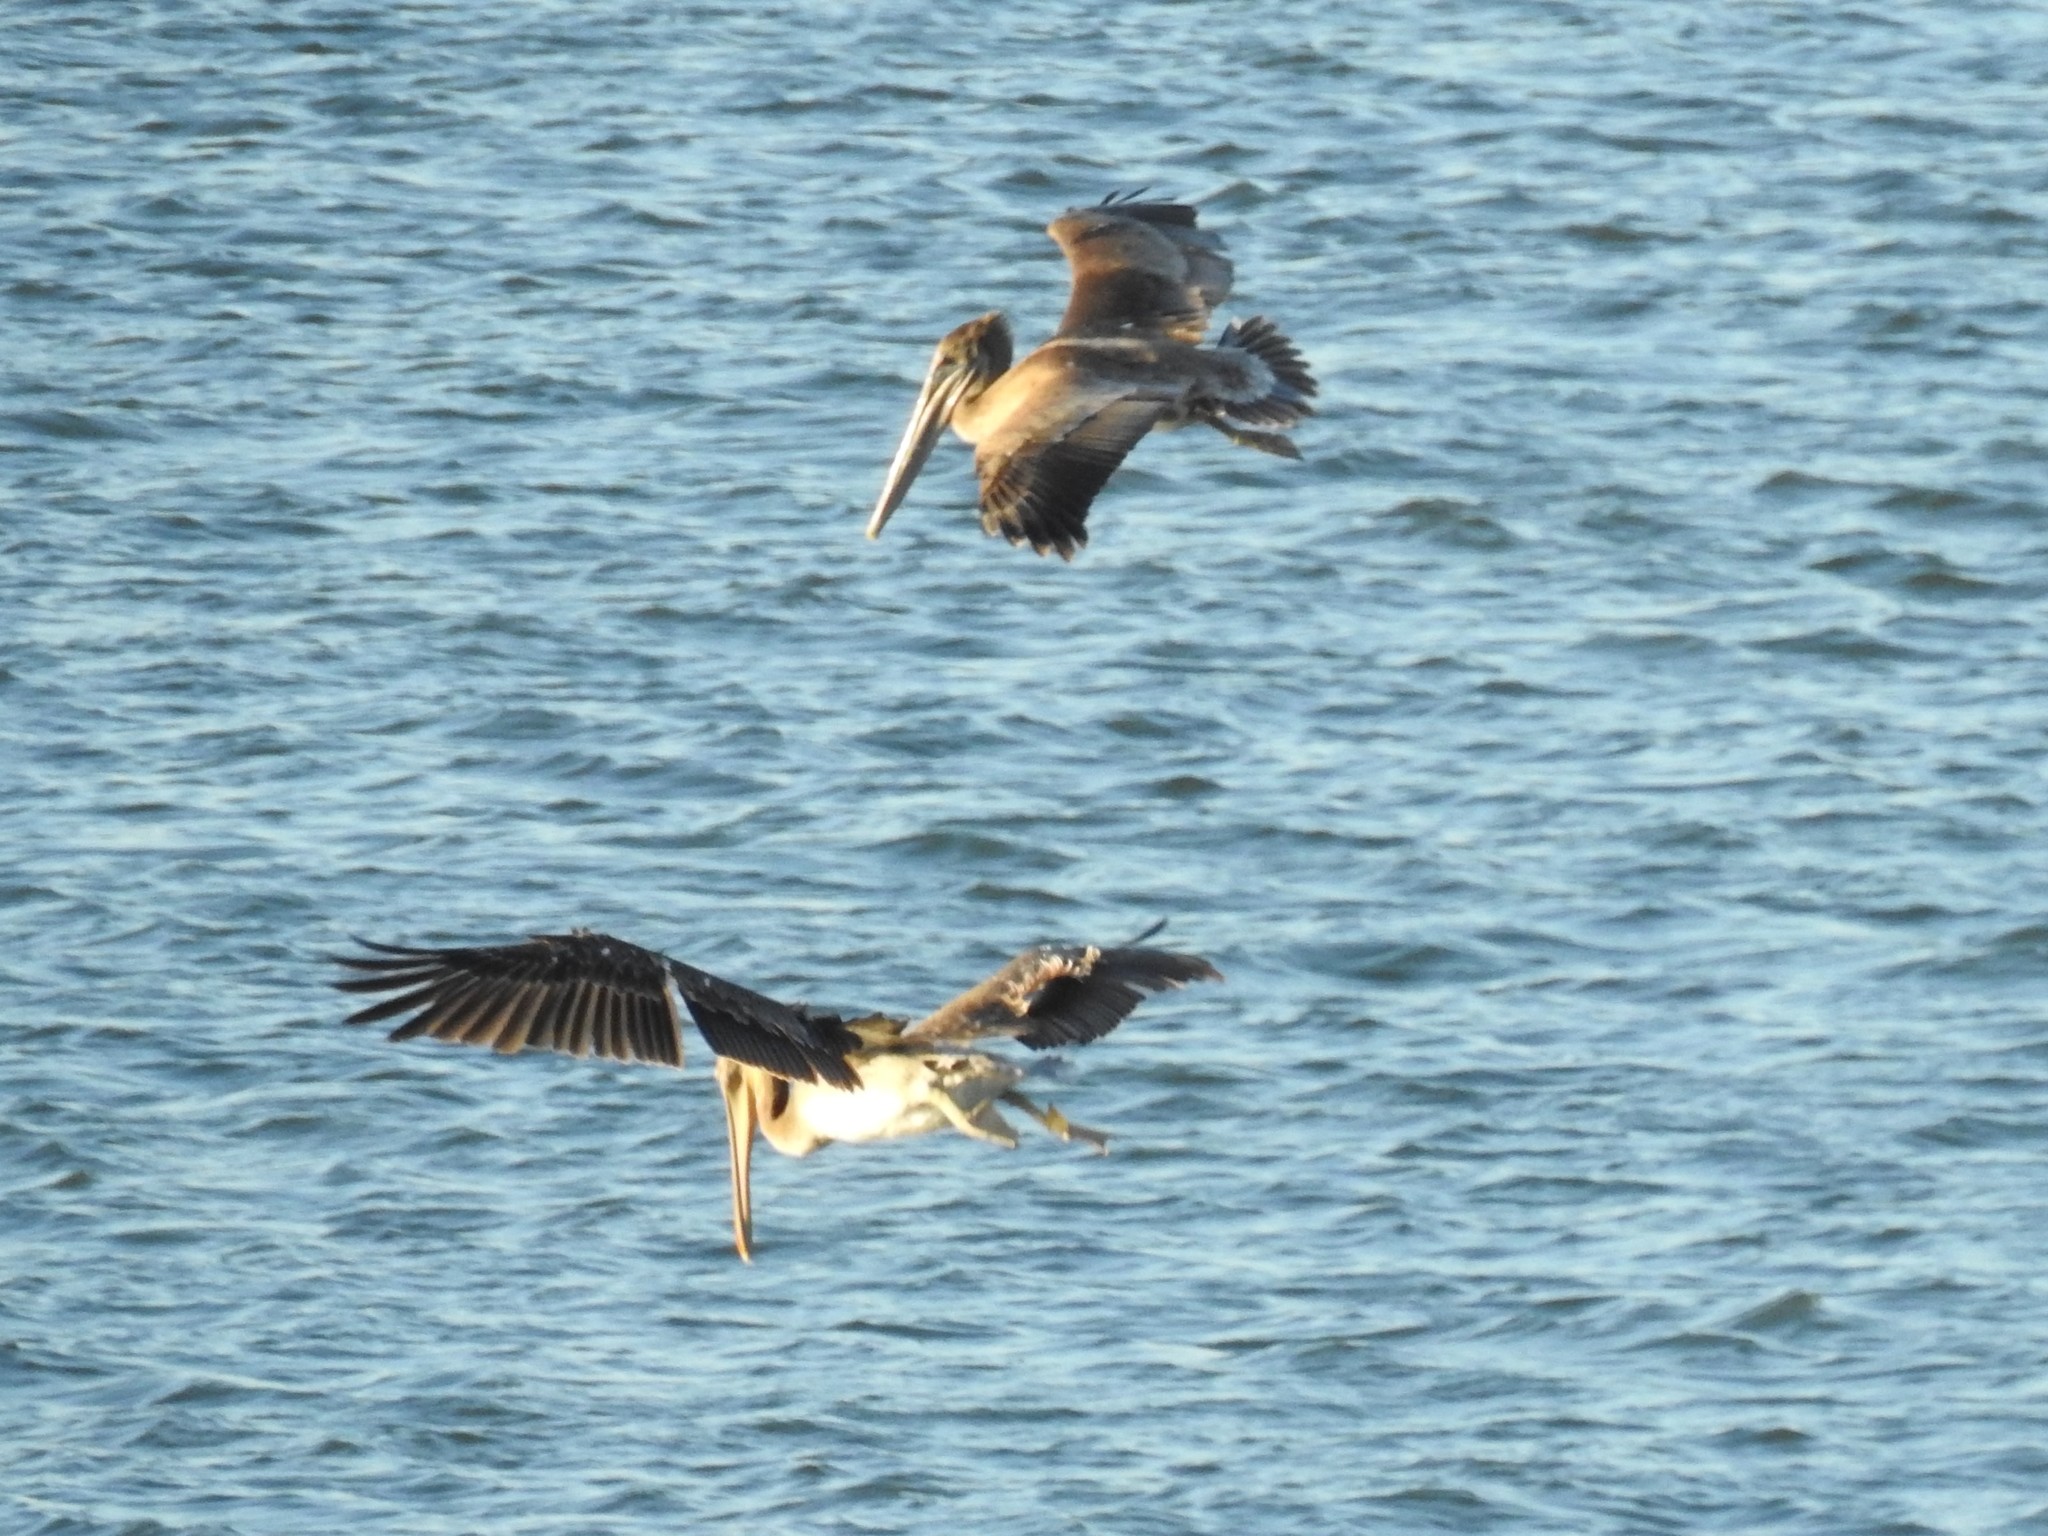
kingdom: Animalia
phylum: Chordata
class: Aves
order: Pelecaniformes
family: Pelecanidae
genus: Pelecanus
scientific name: Pelecanus occidentalis
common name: Brown pelican
